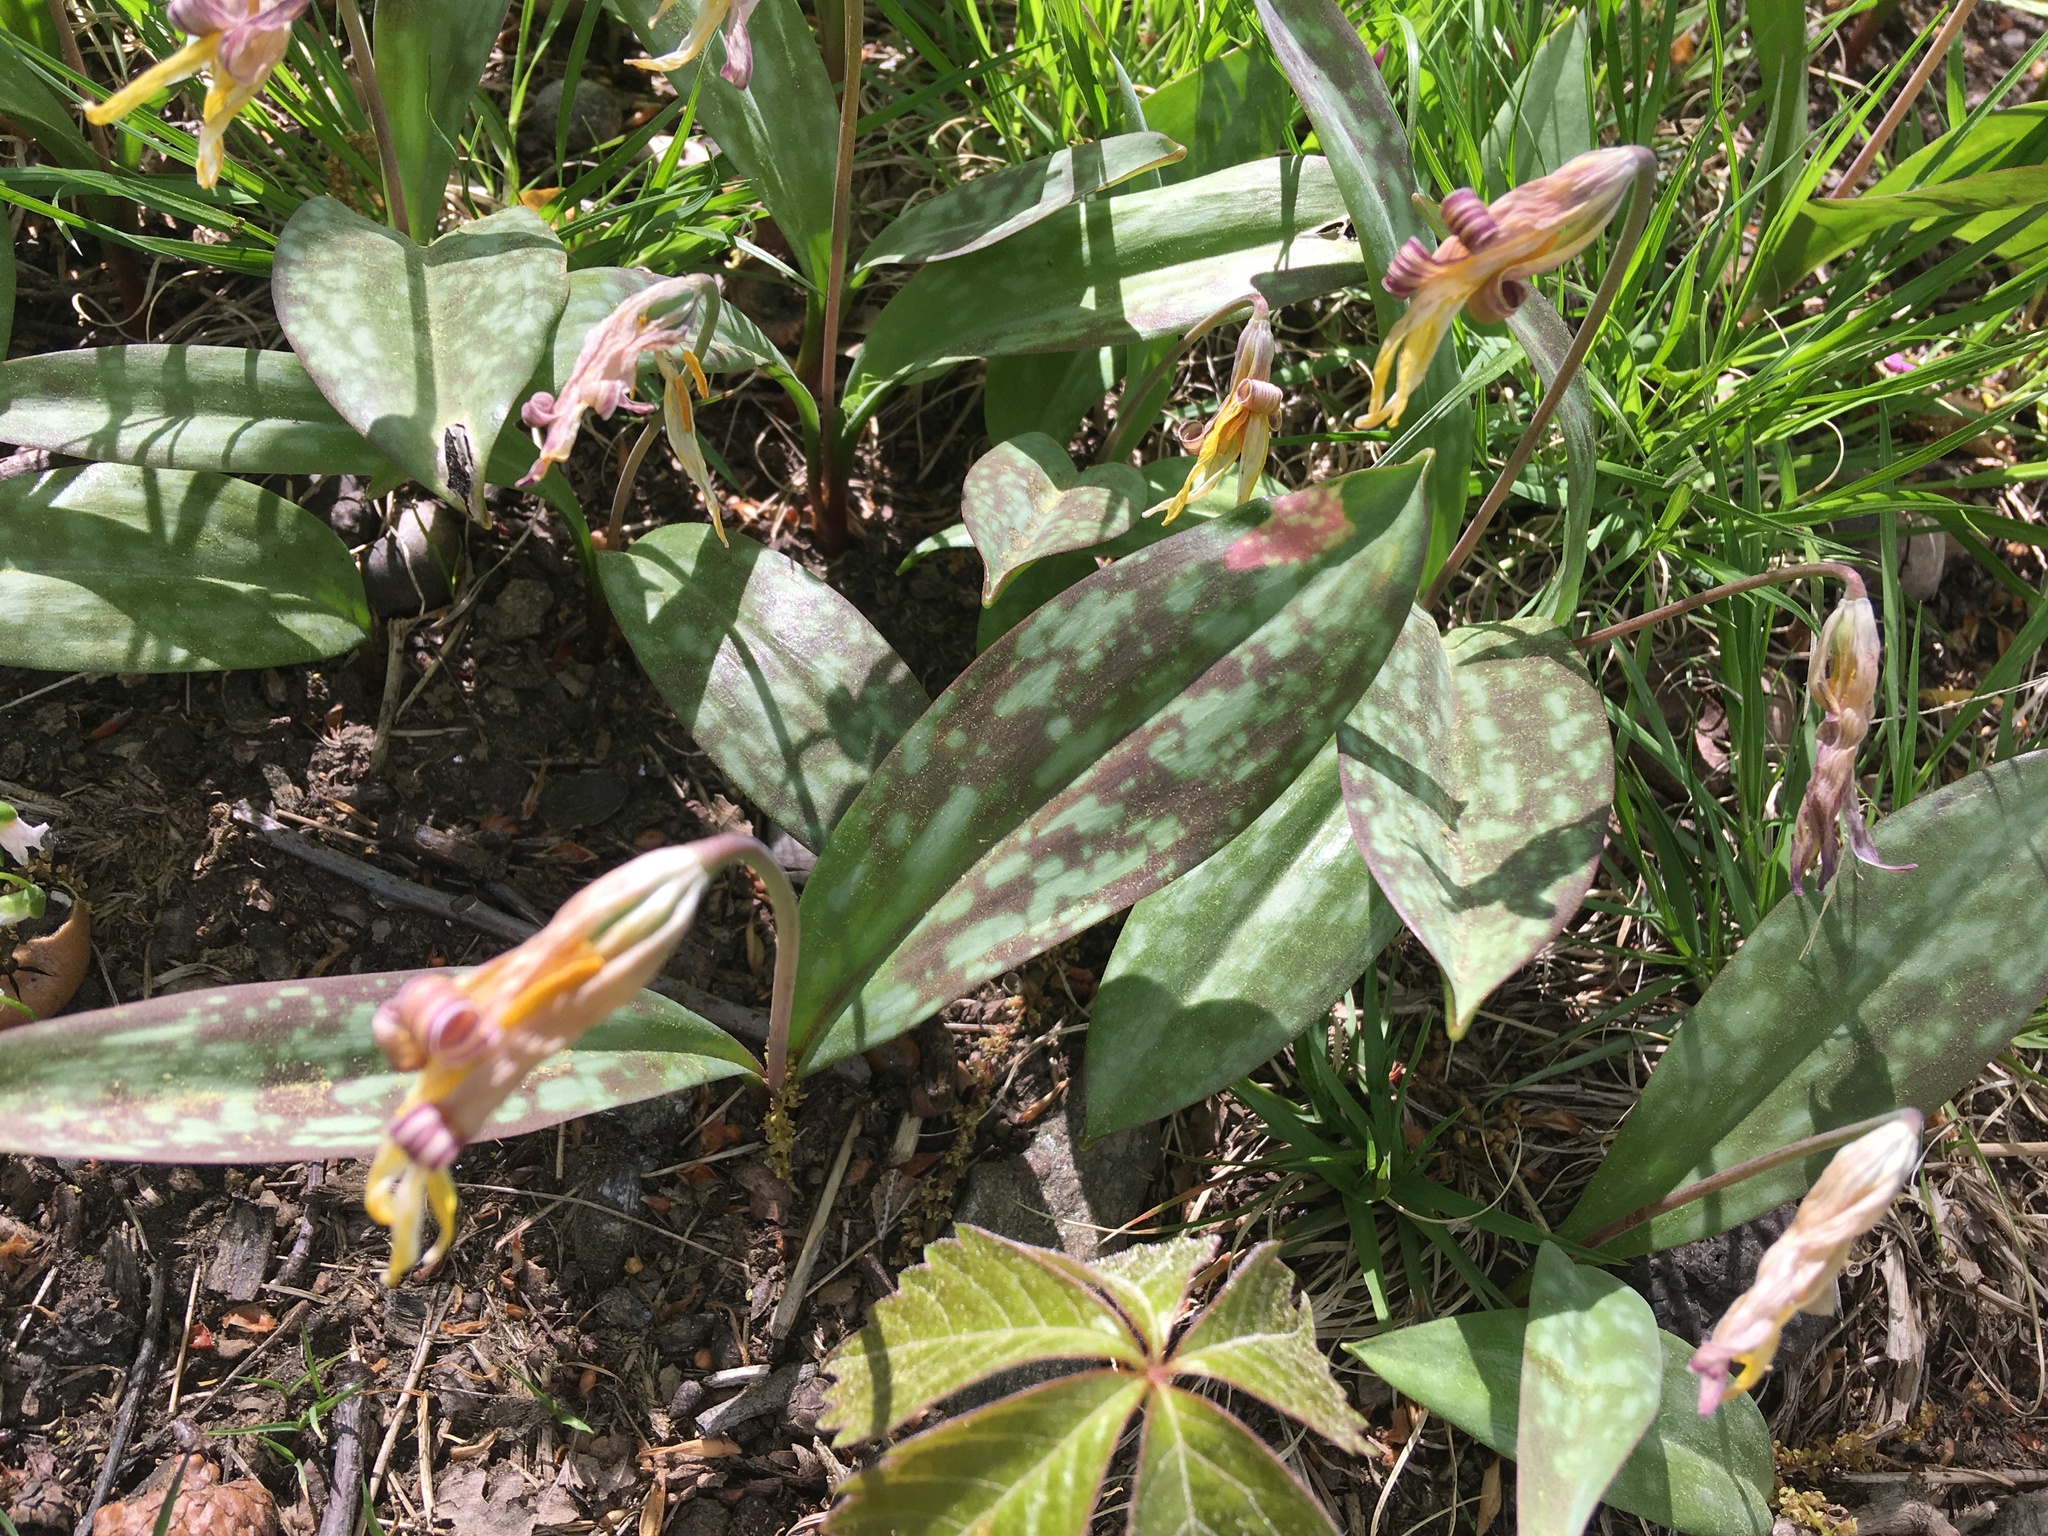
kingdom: Plantae
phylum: Tracheophyta
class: Liliopsida
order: Liliales
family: Liliaceae
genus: Erythronium
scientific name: Erythronium americanum
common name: Yellow adder's-tongue
